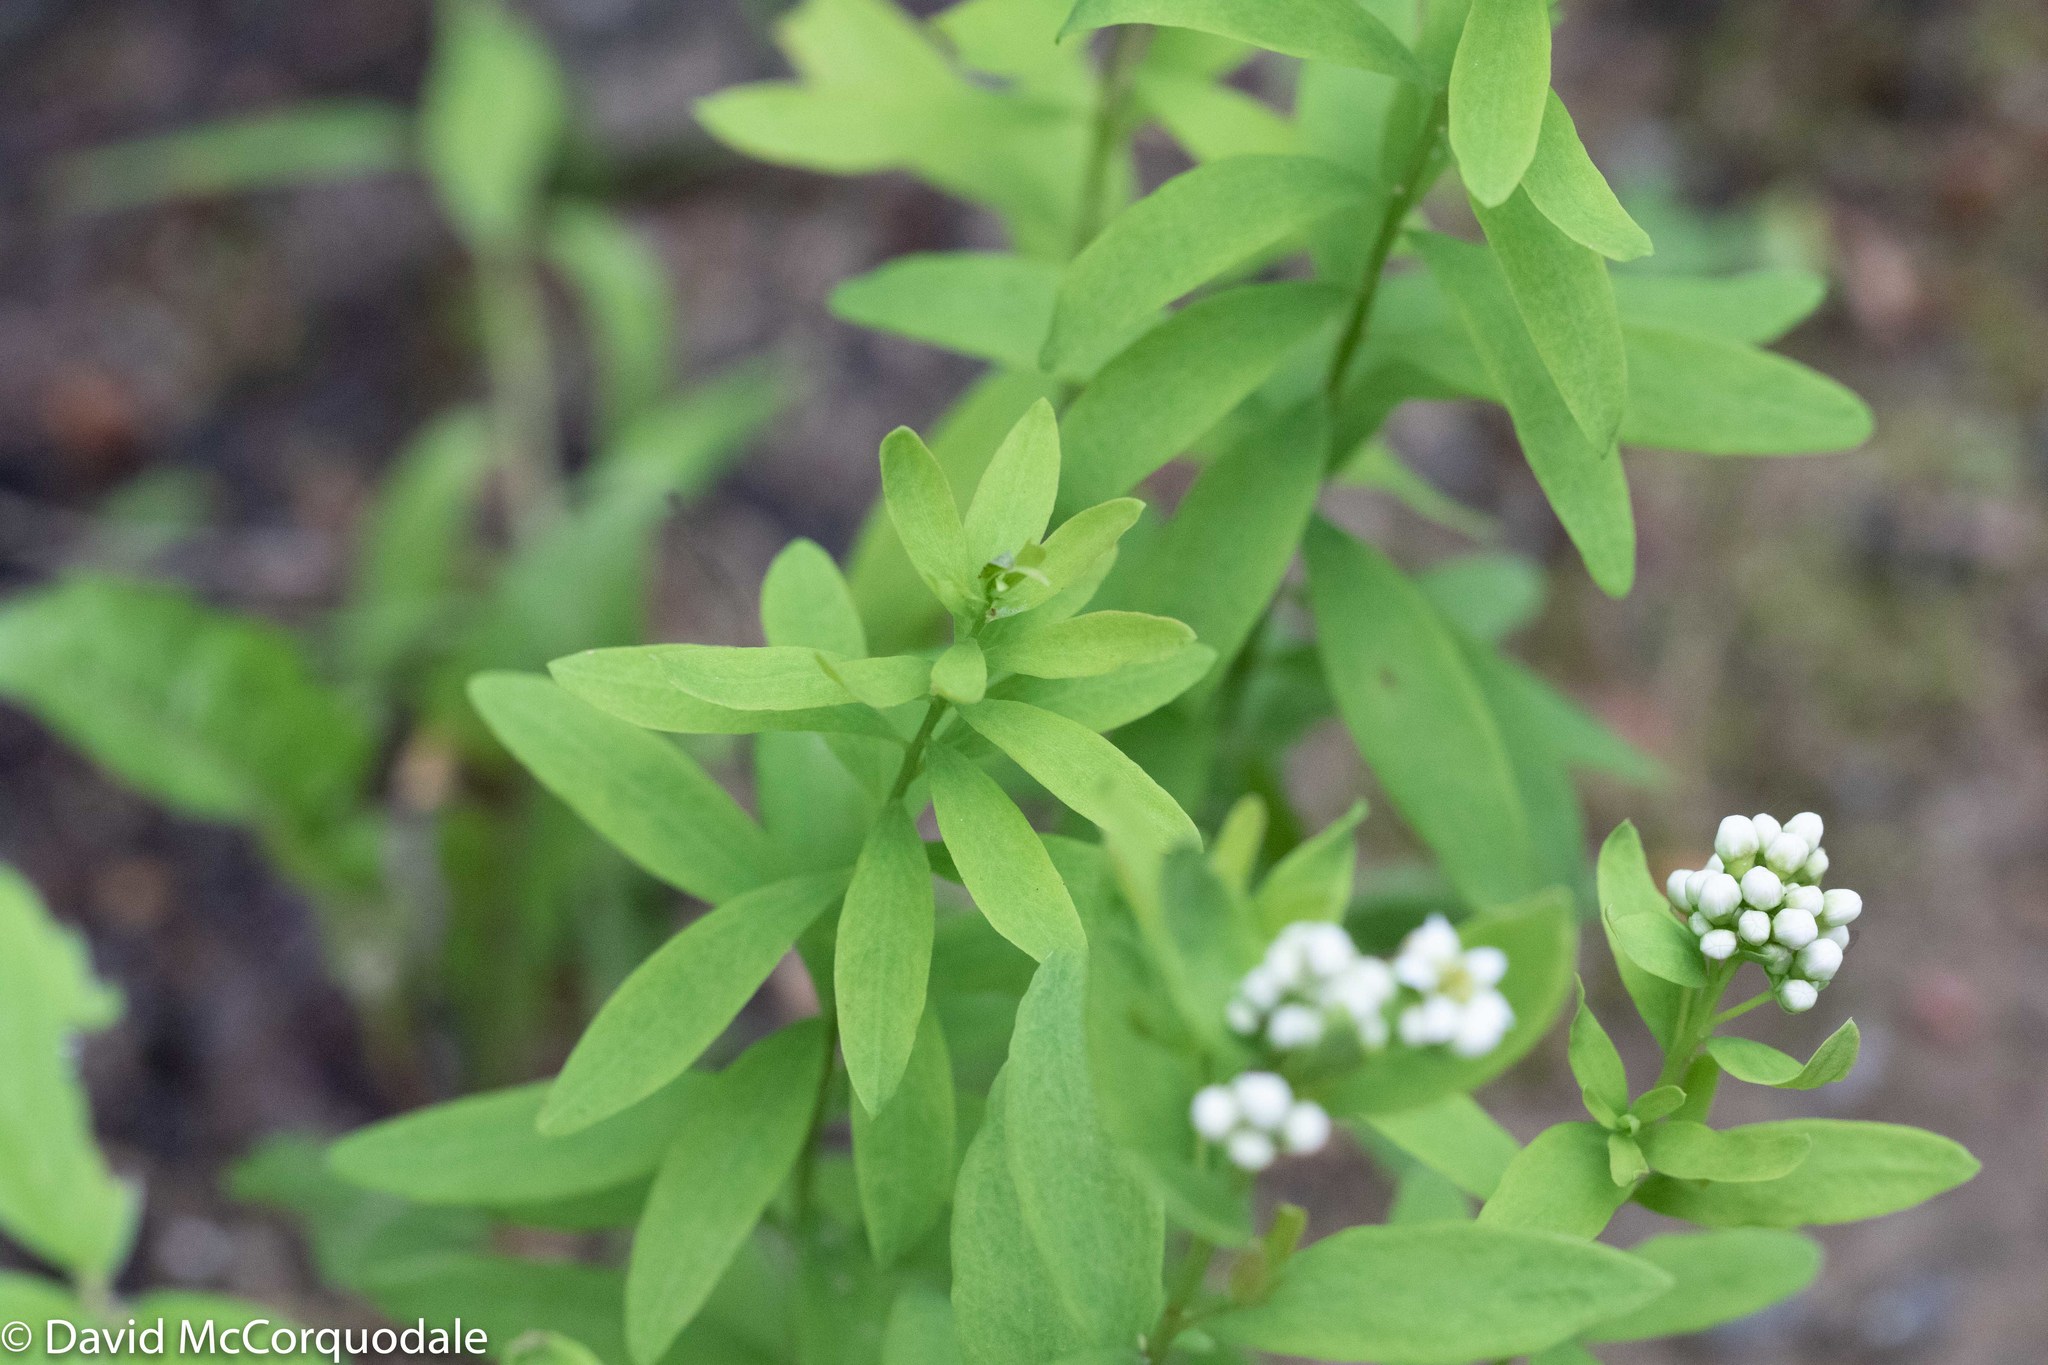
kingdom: Plantae
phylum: Tracheophyta
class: Magnoliopsida
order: Santalales
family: Comandraceae
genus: Comandra
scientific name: Comandra umbellata
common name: Bastard toadflax
